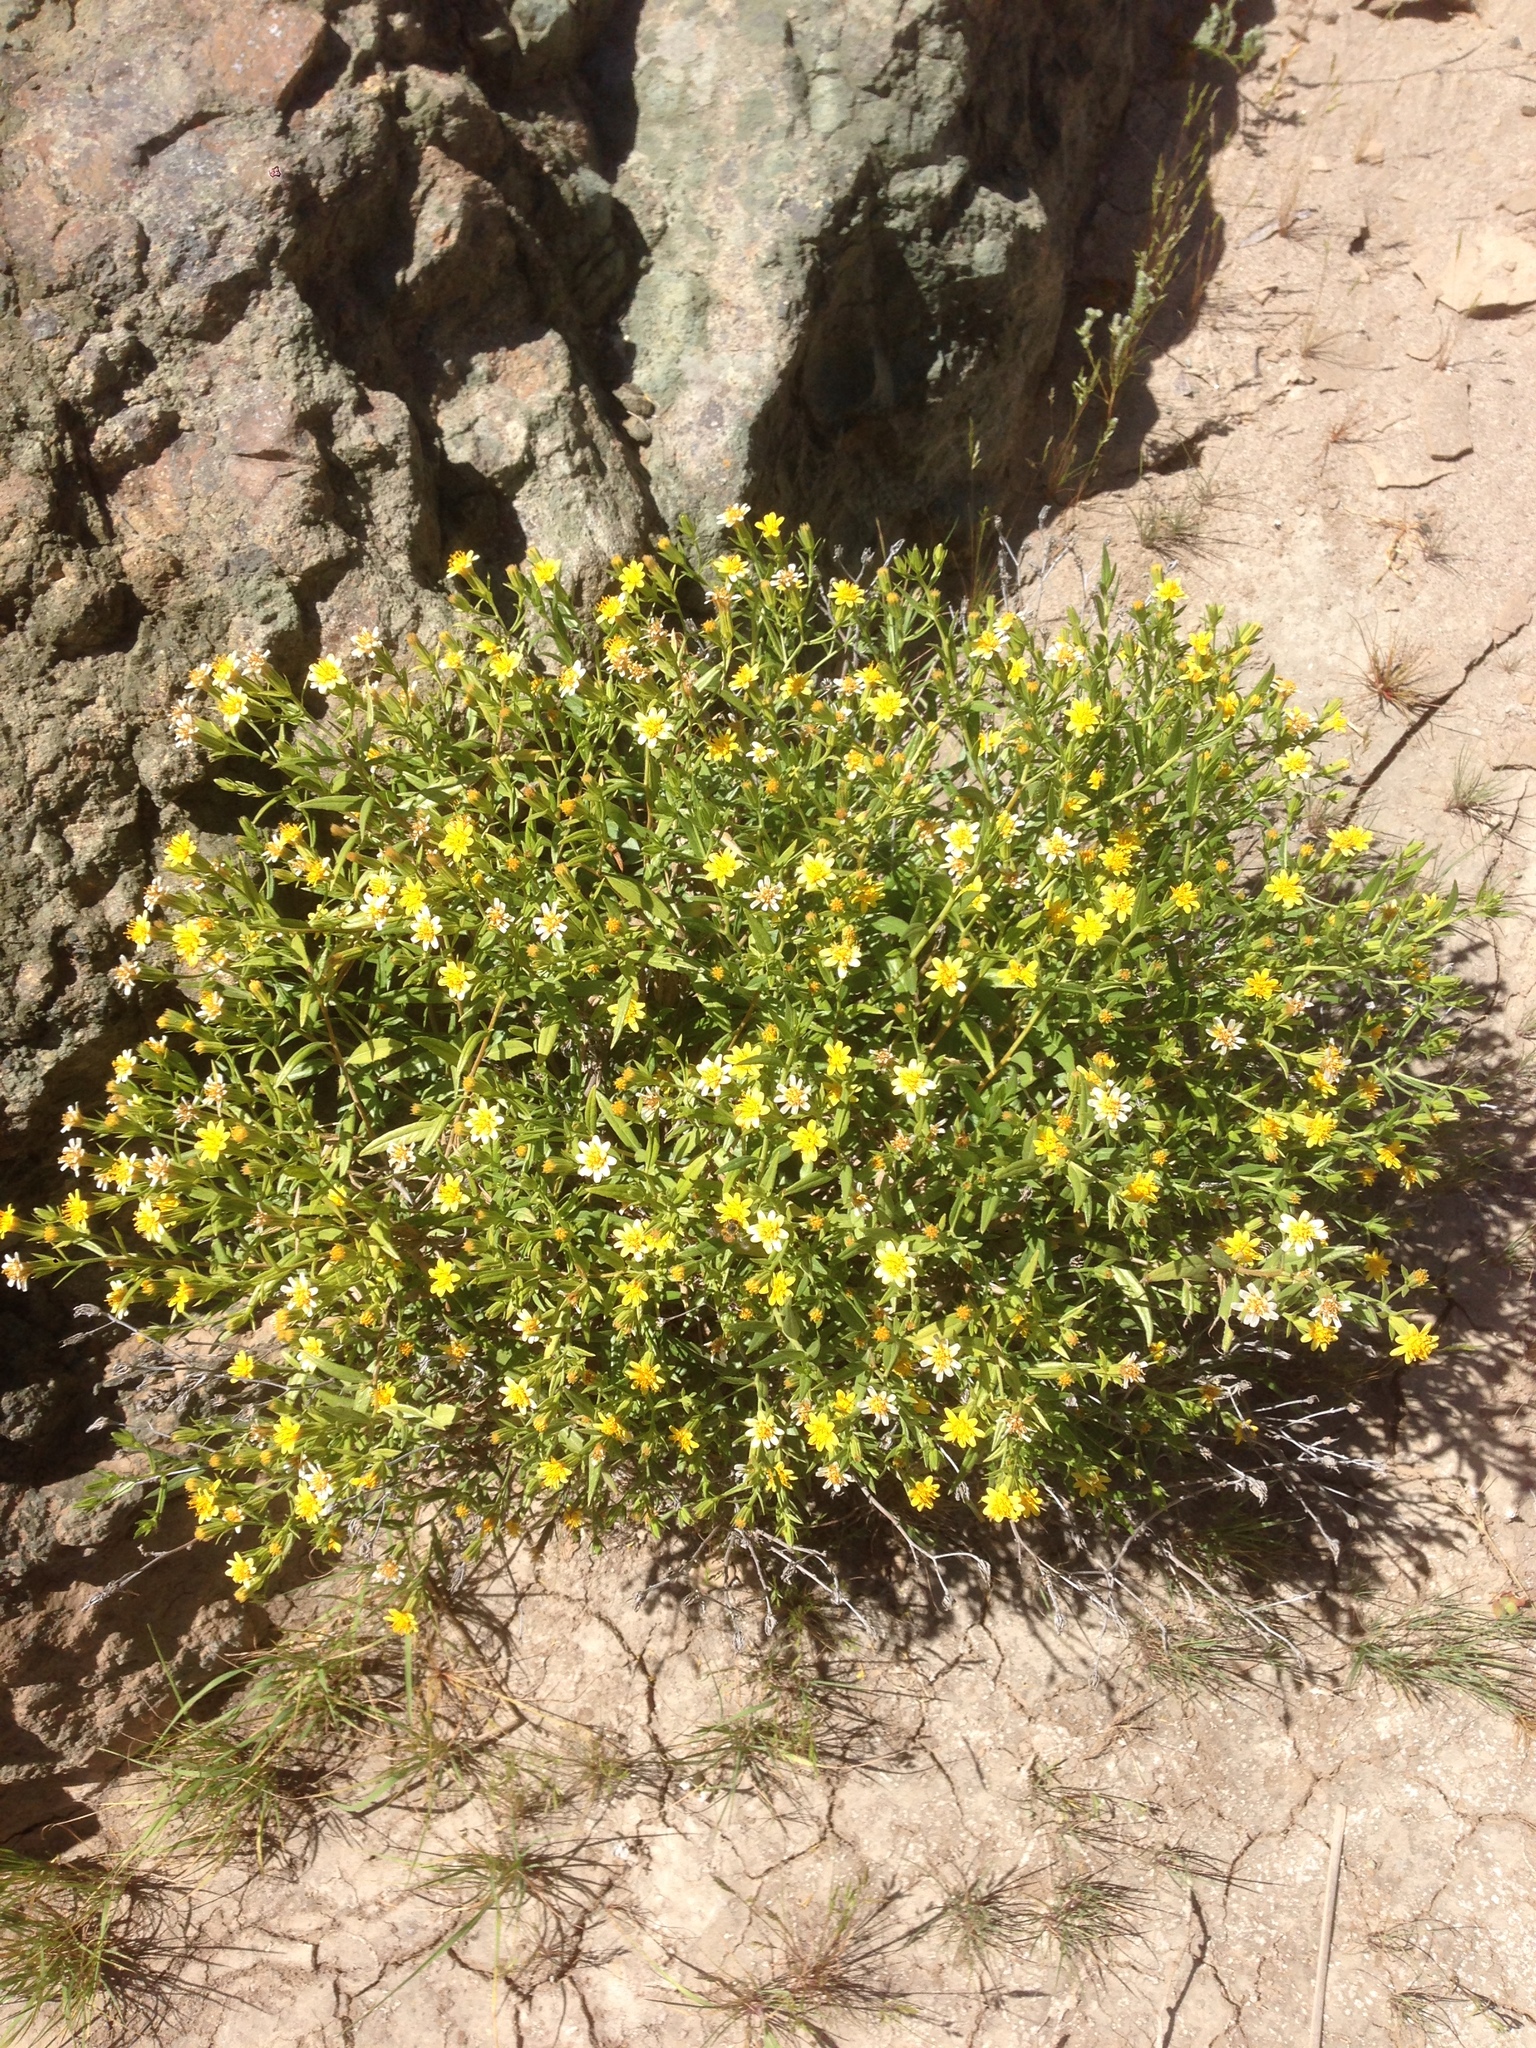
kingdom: Plantae
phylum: Tracheophyta
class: Magnoliopsida
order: Asterales
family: Asteraceae
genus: Trixis
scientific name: Trixis californica
